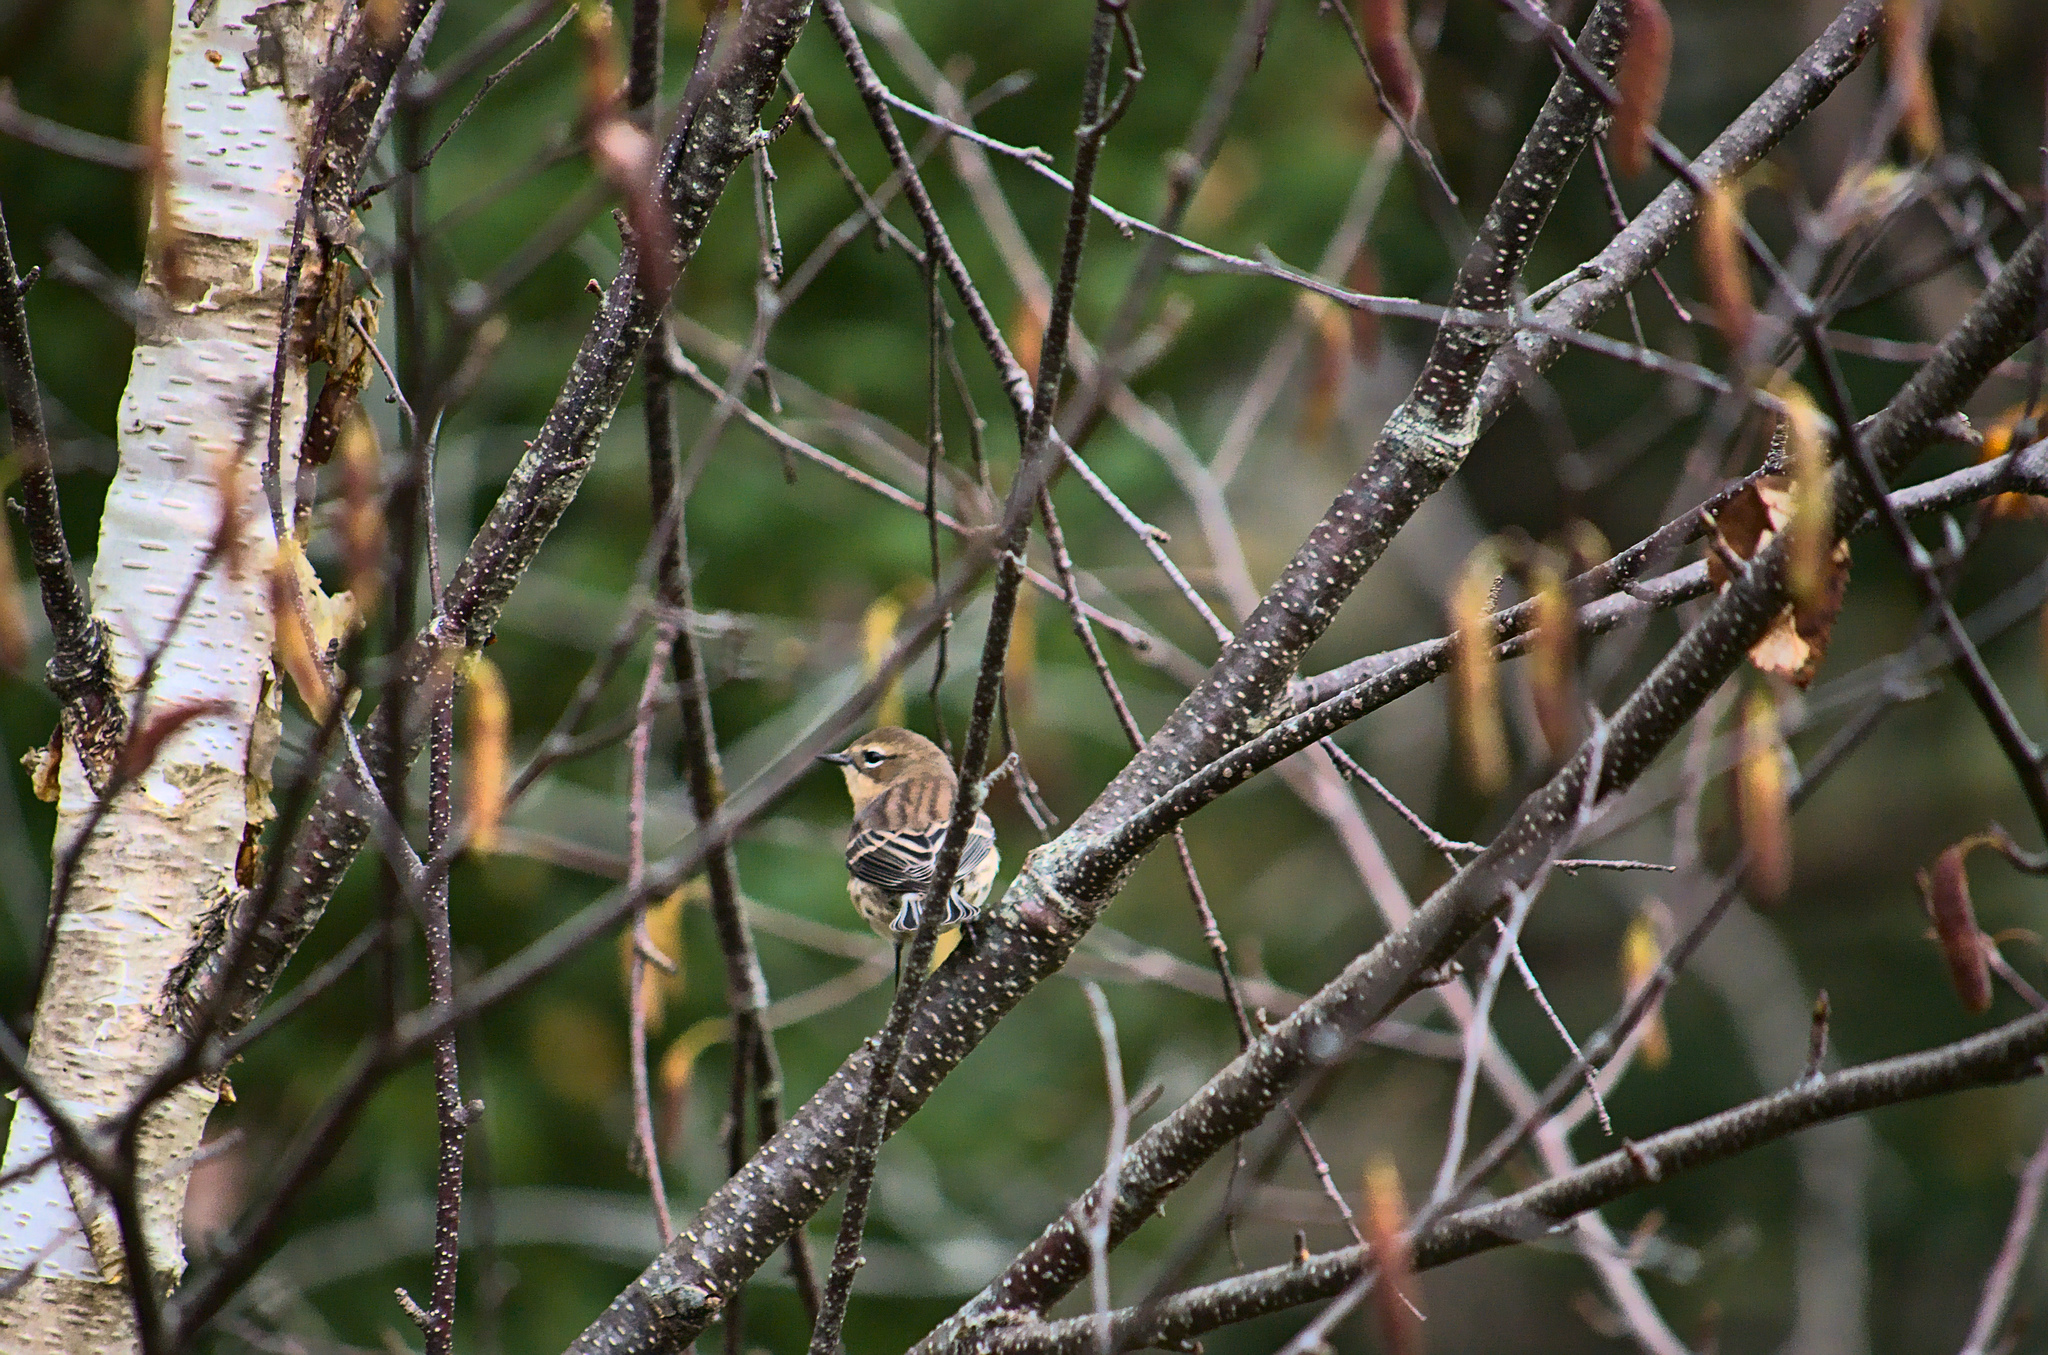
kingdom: Animalia
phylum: Chordata
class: Aves
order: Passeriformes
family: Parulidae
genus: Setophaga
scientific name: Setophaga coronata
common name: Myrtle warbler
